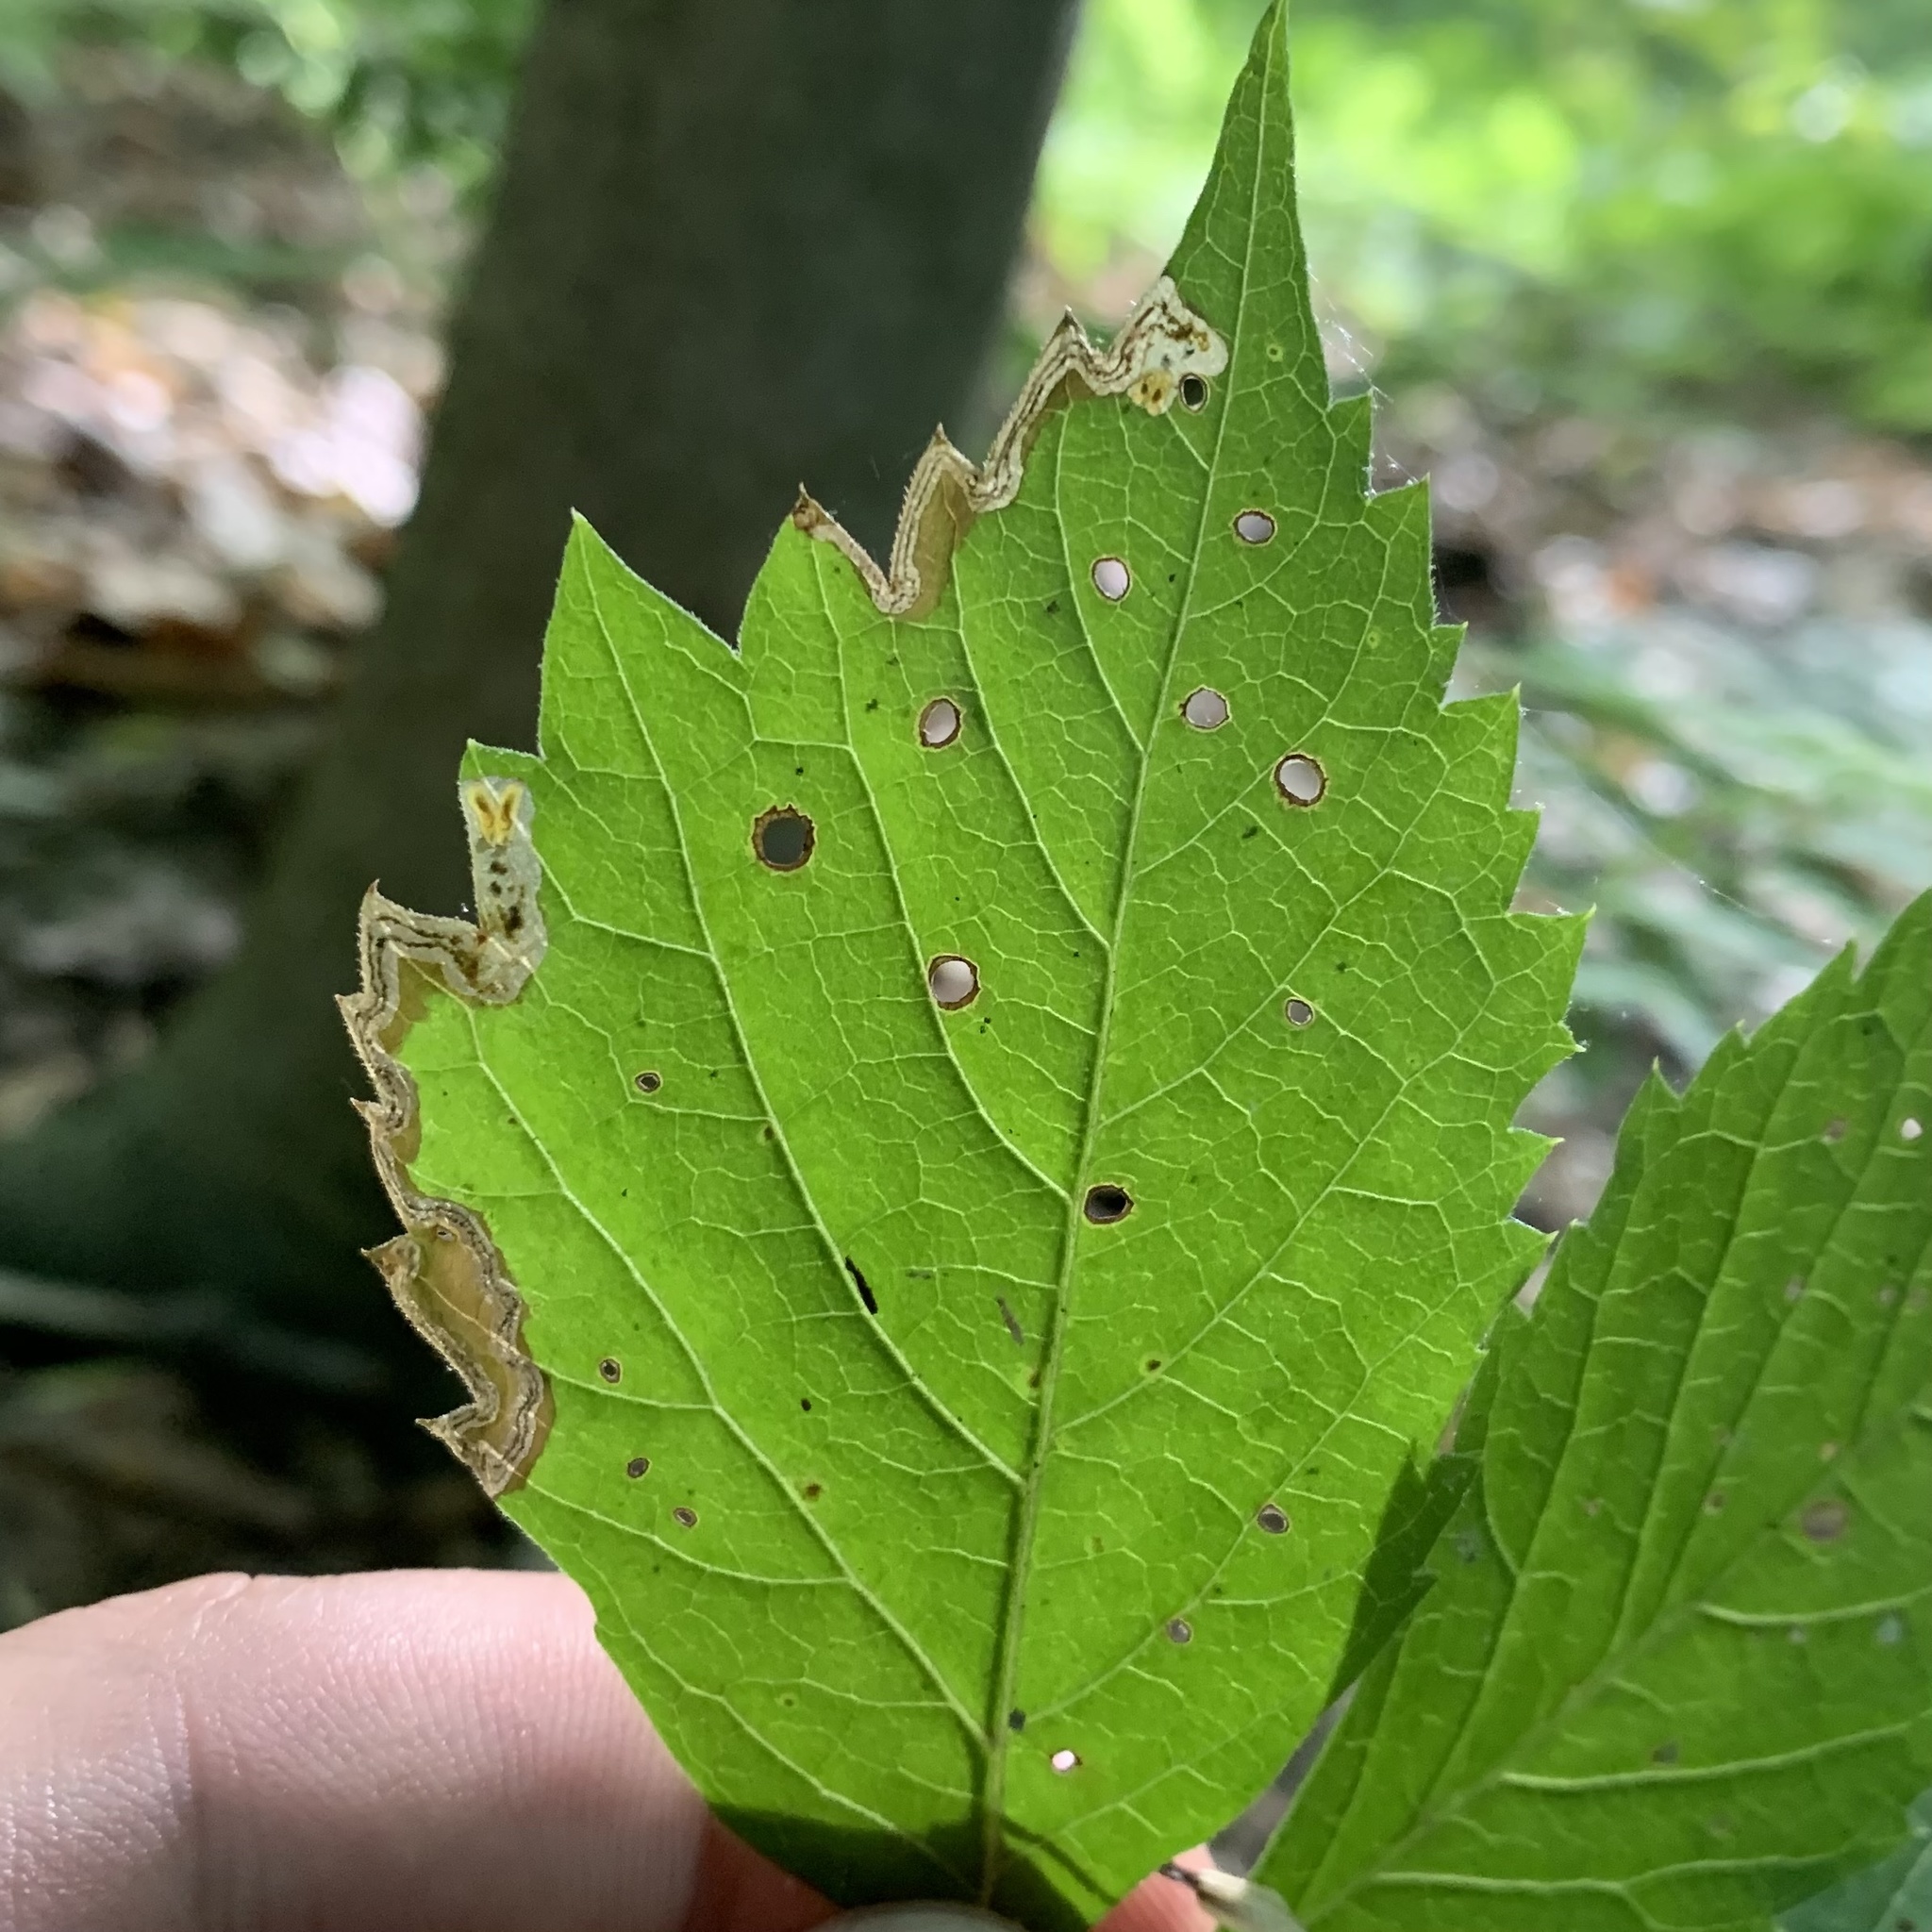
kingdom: Animalia
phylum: Arthropoda
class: Insecta
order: Coleoptera
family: Curculionidae
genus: Orchestomerus
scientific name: Orchestomerus eisemani
